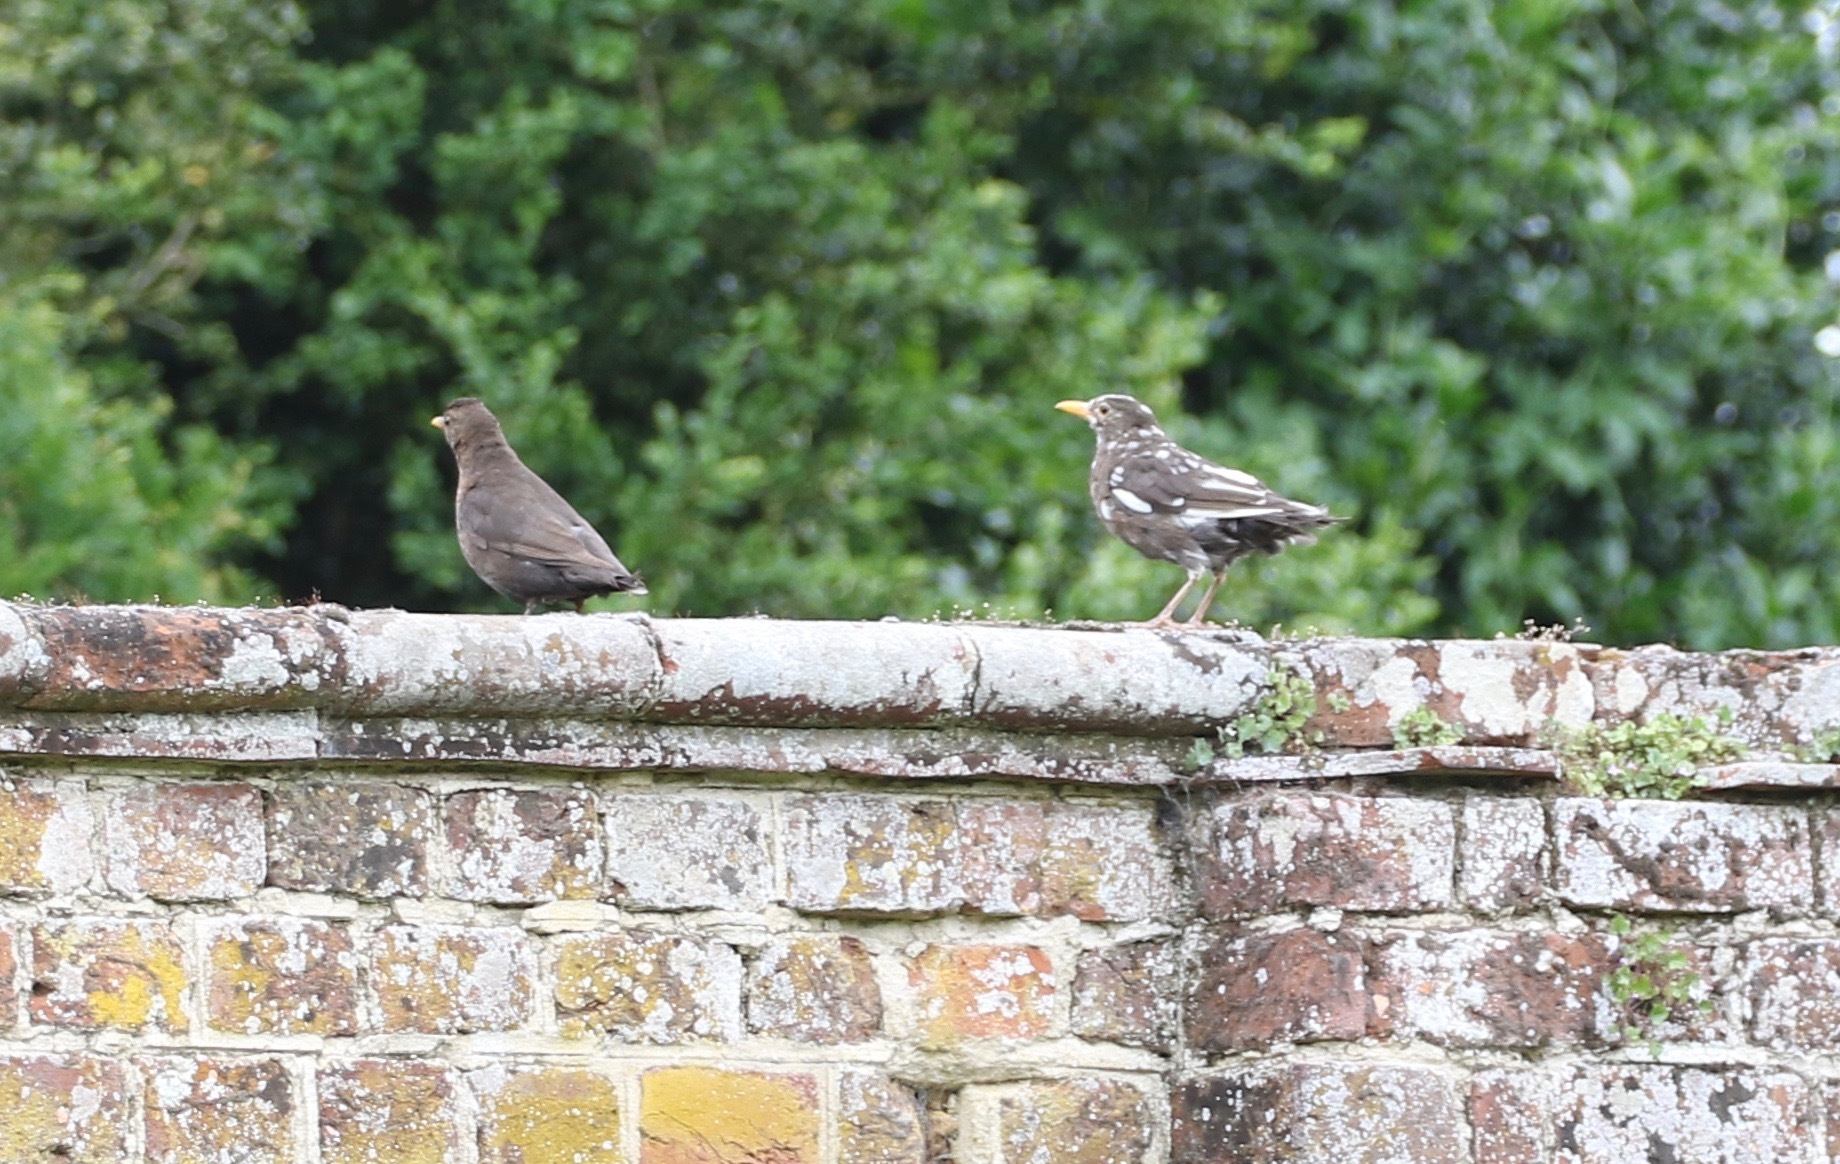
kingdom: Animalia
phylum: Chordata
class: Aves
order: Passeriformes
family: Turdidae
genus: Turdus
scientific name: Turdus merula
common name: Common blackbird
